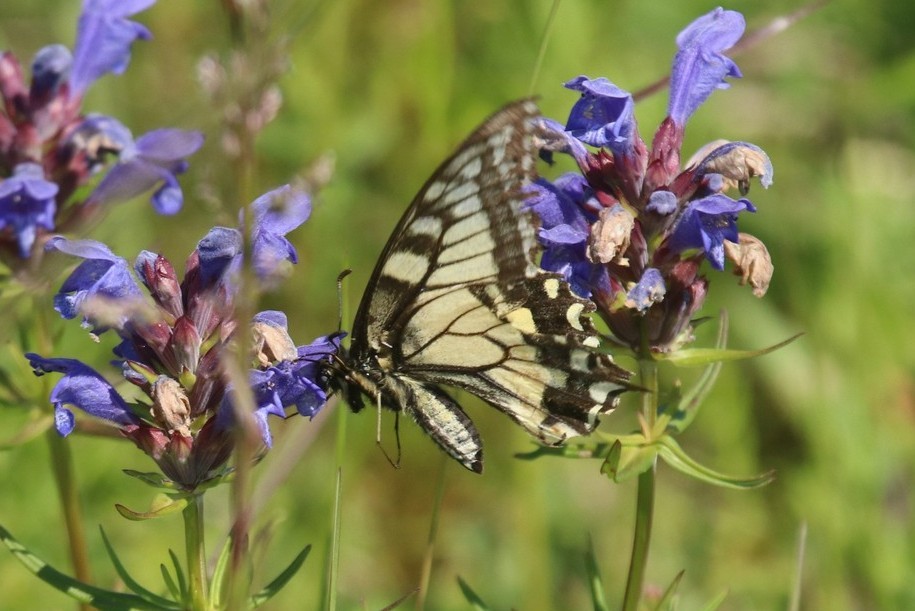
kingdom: Animalia
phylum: Arthropoda
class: Insecta
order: Lepidoptera
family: Papilionidae
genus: Papilio
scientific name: Papilio machaon
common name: Swallowtail
